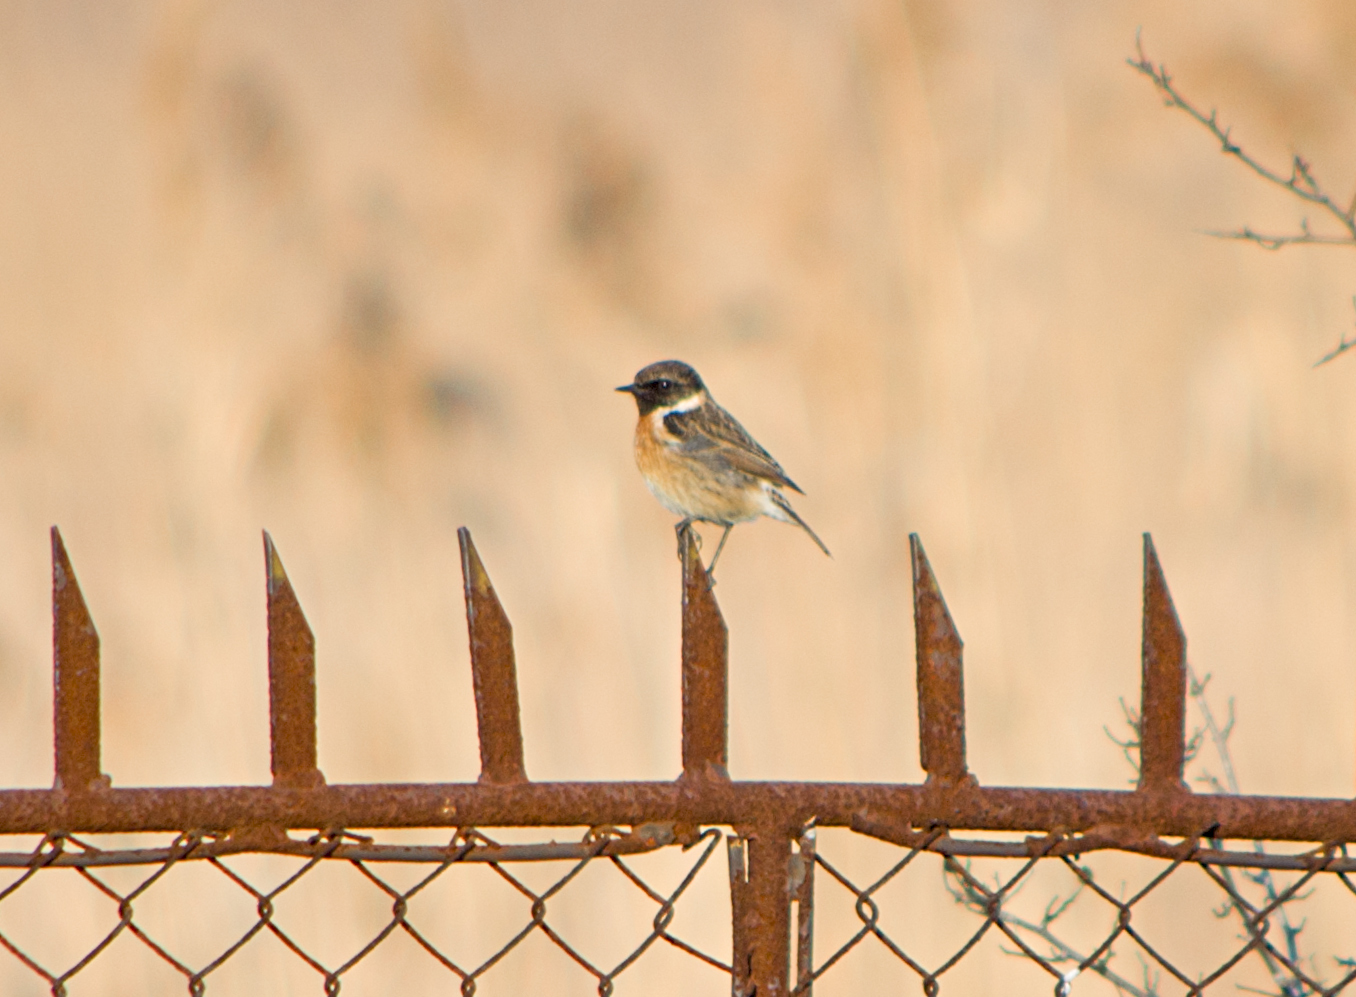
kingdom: Animalia
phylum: Chordata
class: Aves
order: Passeriformes
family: Muscicapidae
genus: Saxicola
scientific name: Saxicola rubicola
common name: European stonechat
